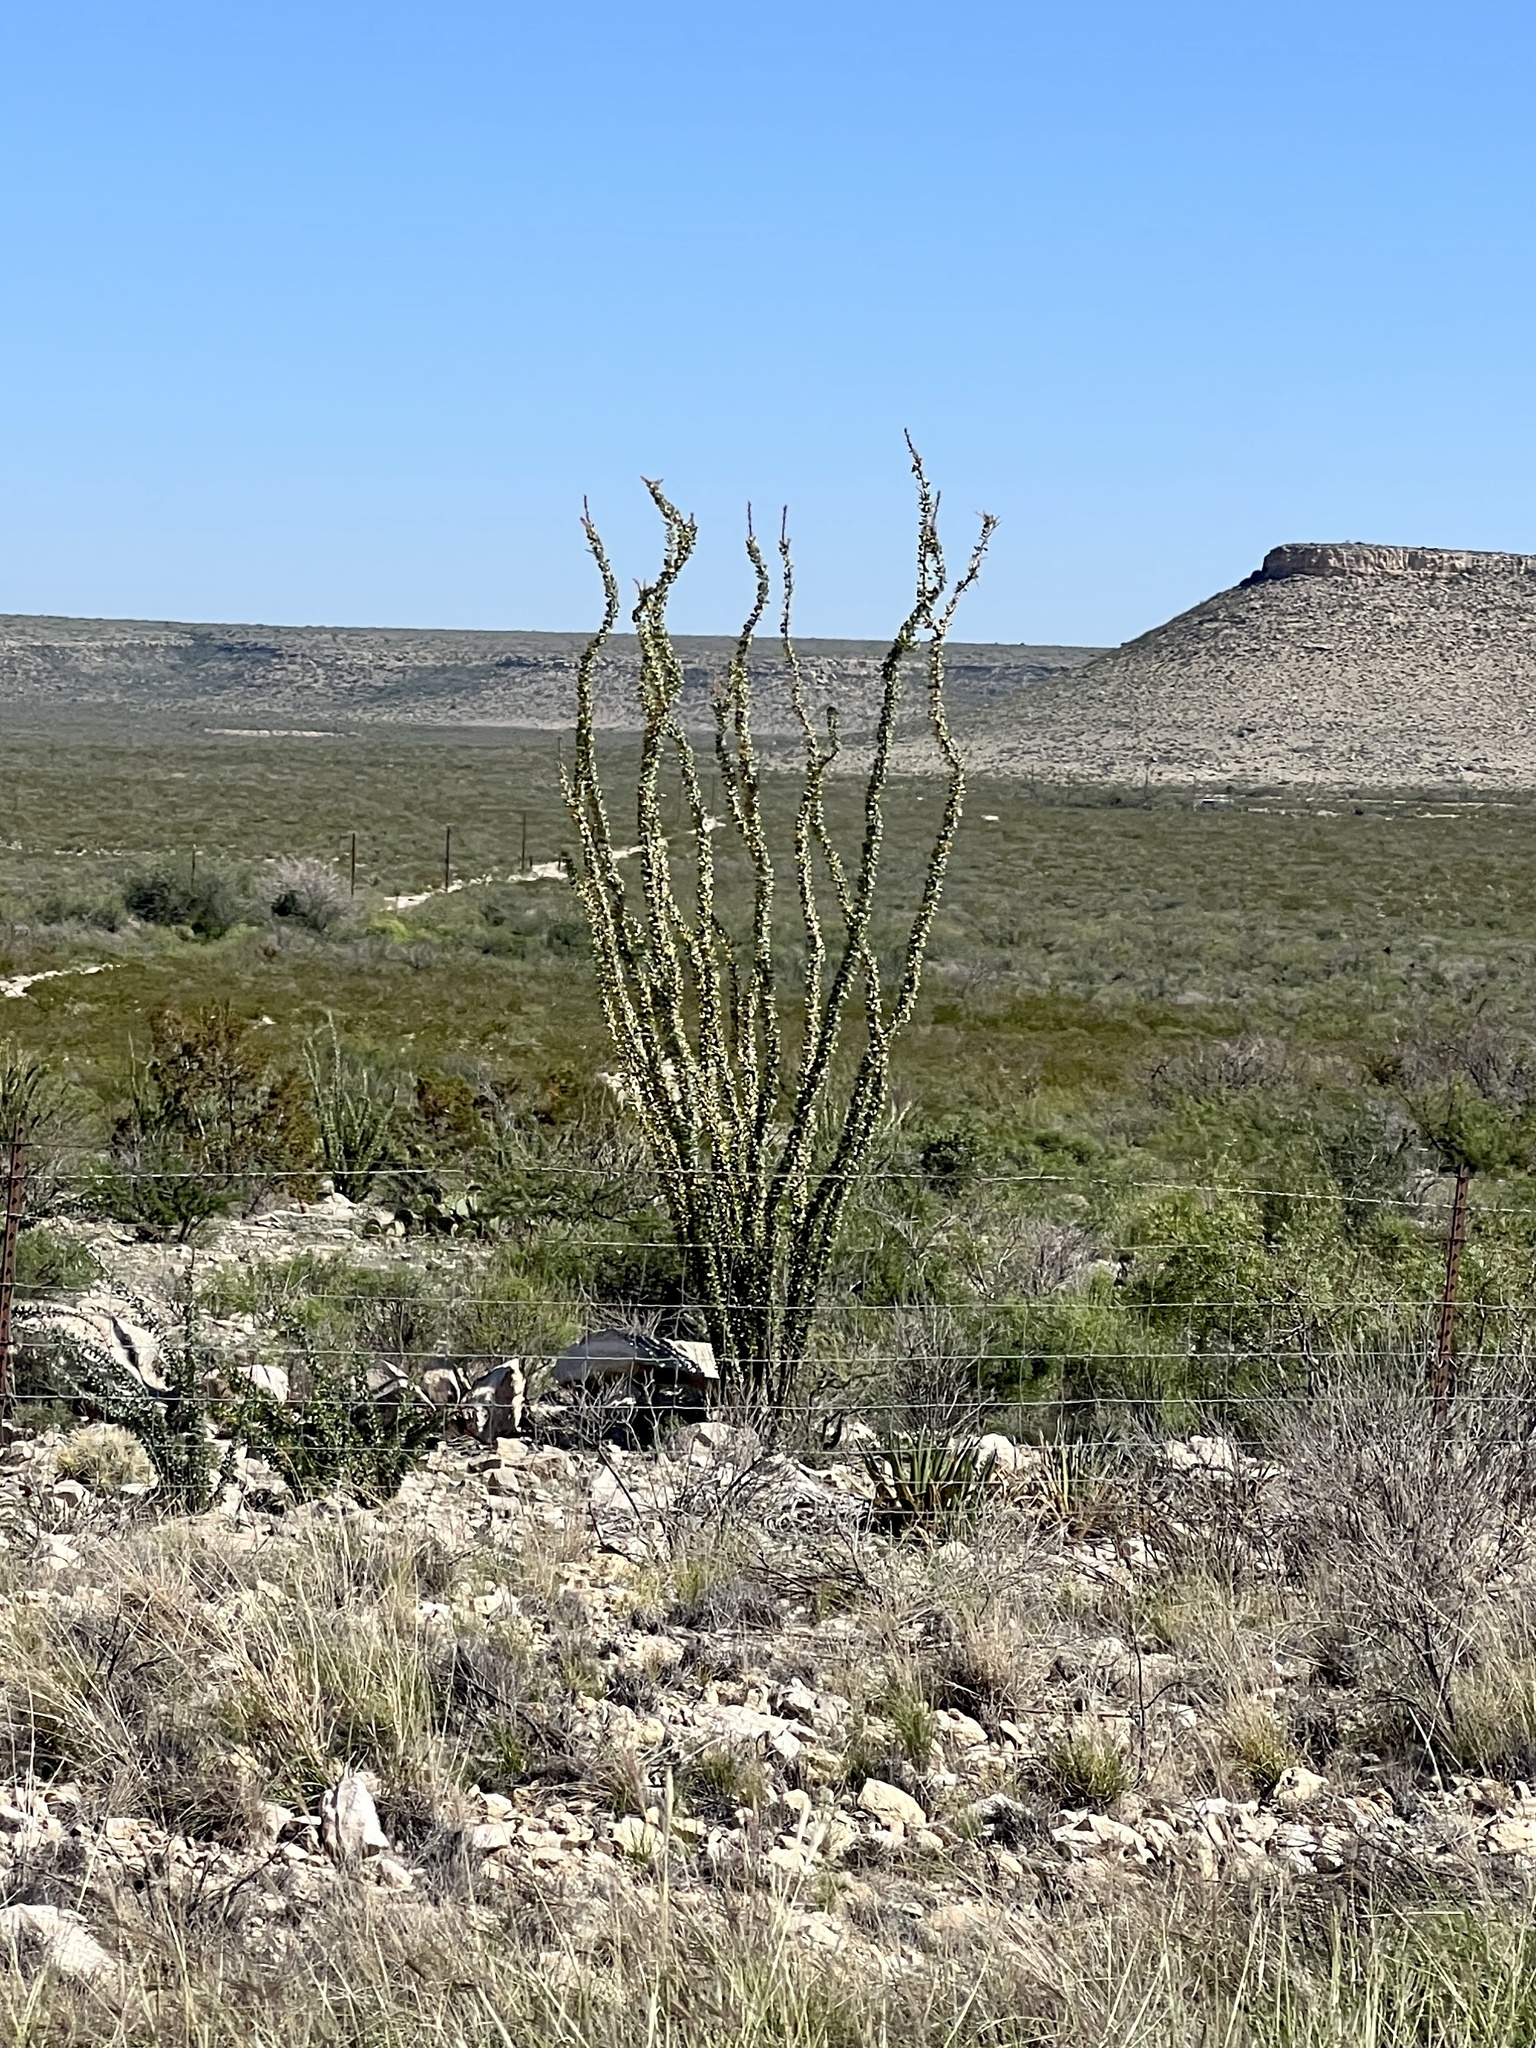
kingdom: Plantae
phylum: Tracheophyta
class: Magnoliopsida
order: Ericales
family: Fouquieriaceae
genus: Fouquieria
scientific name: Fouquieria splendens
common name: Vine-cactus
